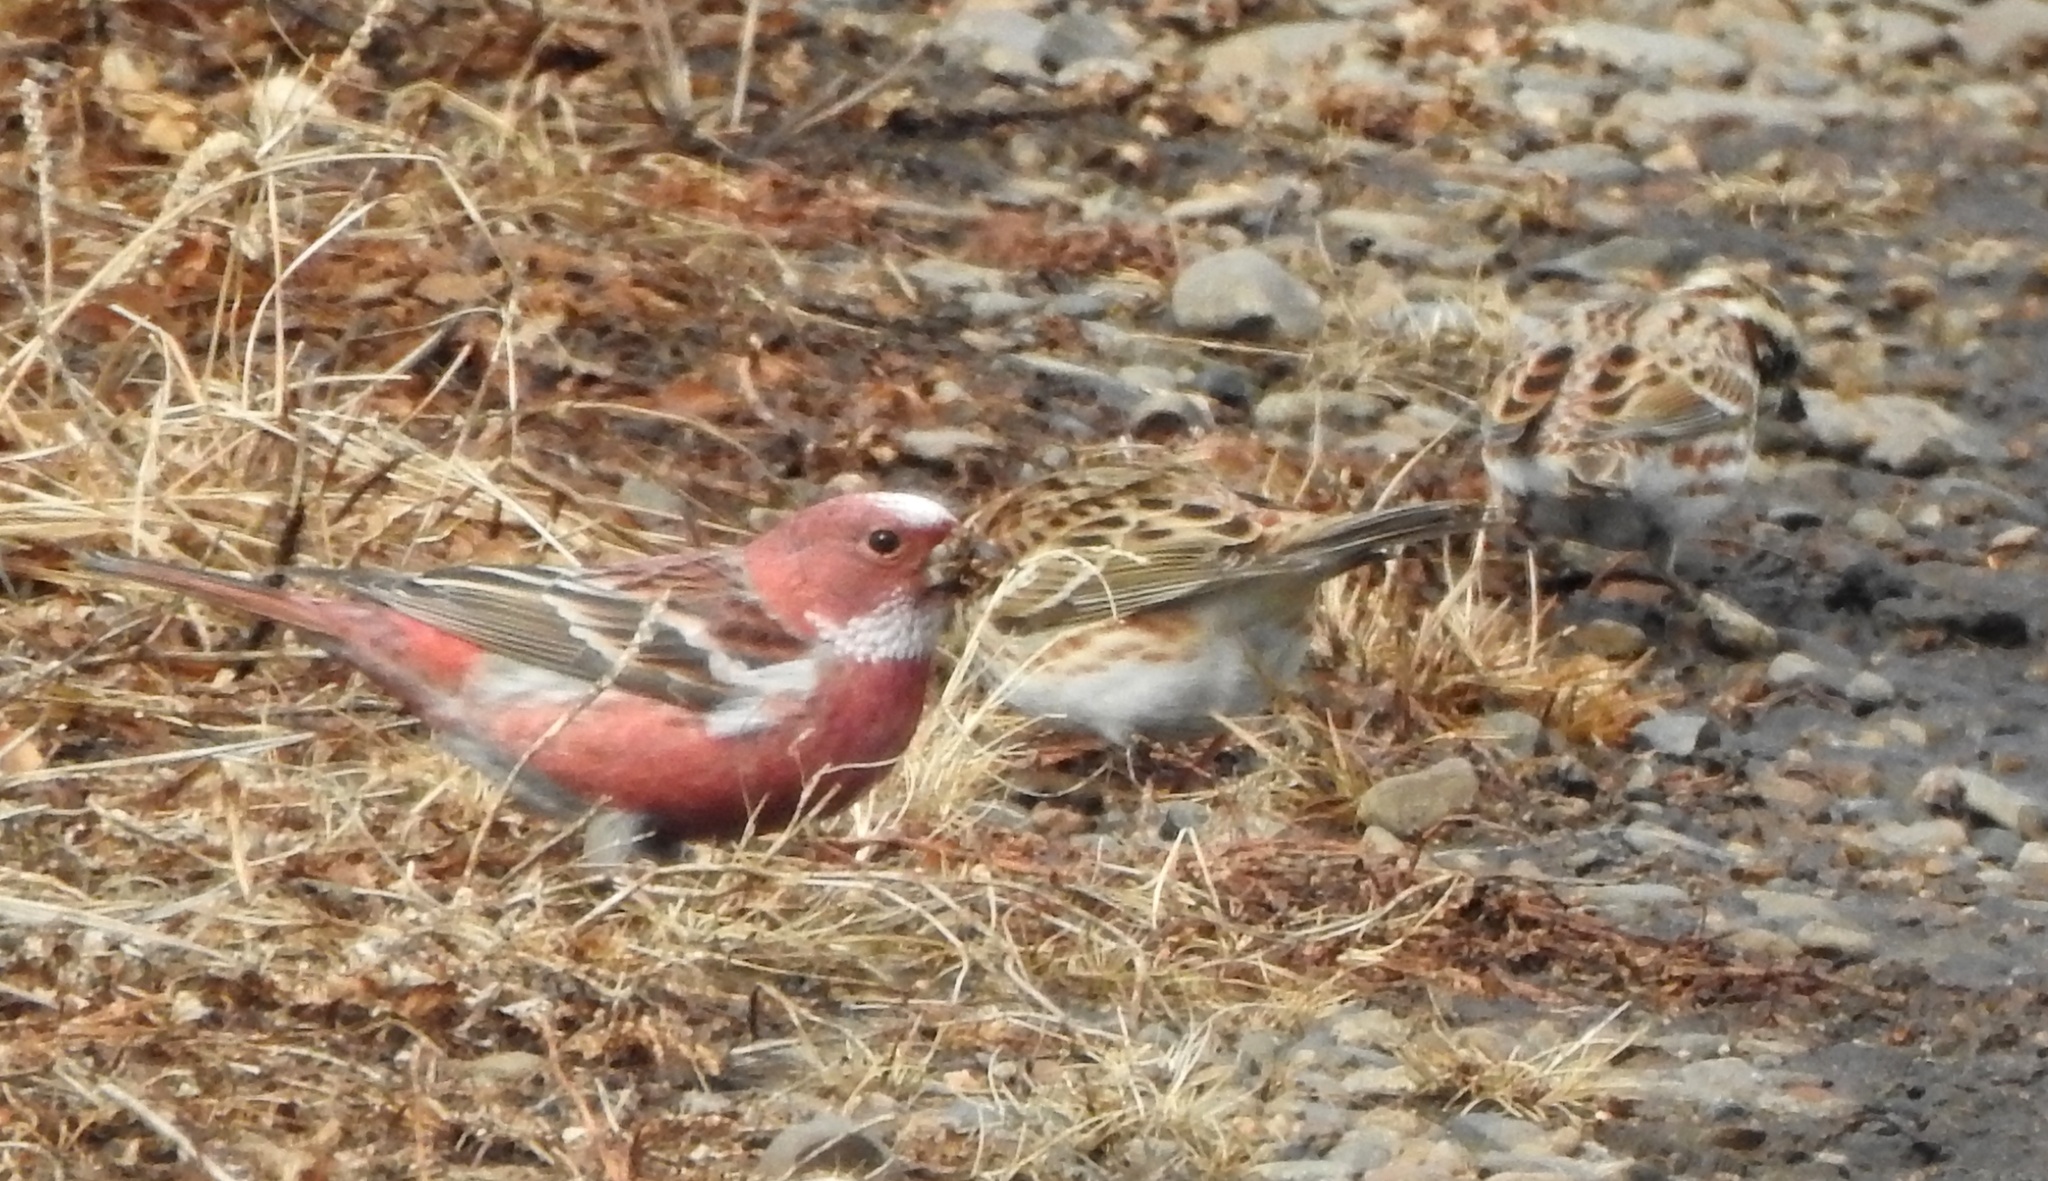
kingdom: Animalia
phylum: Chordata
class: Aves
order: Passeriformes
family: Fringillidae
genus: Carpodacus
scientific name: Carpodacus roseus
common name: Pallas's rosefinch
